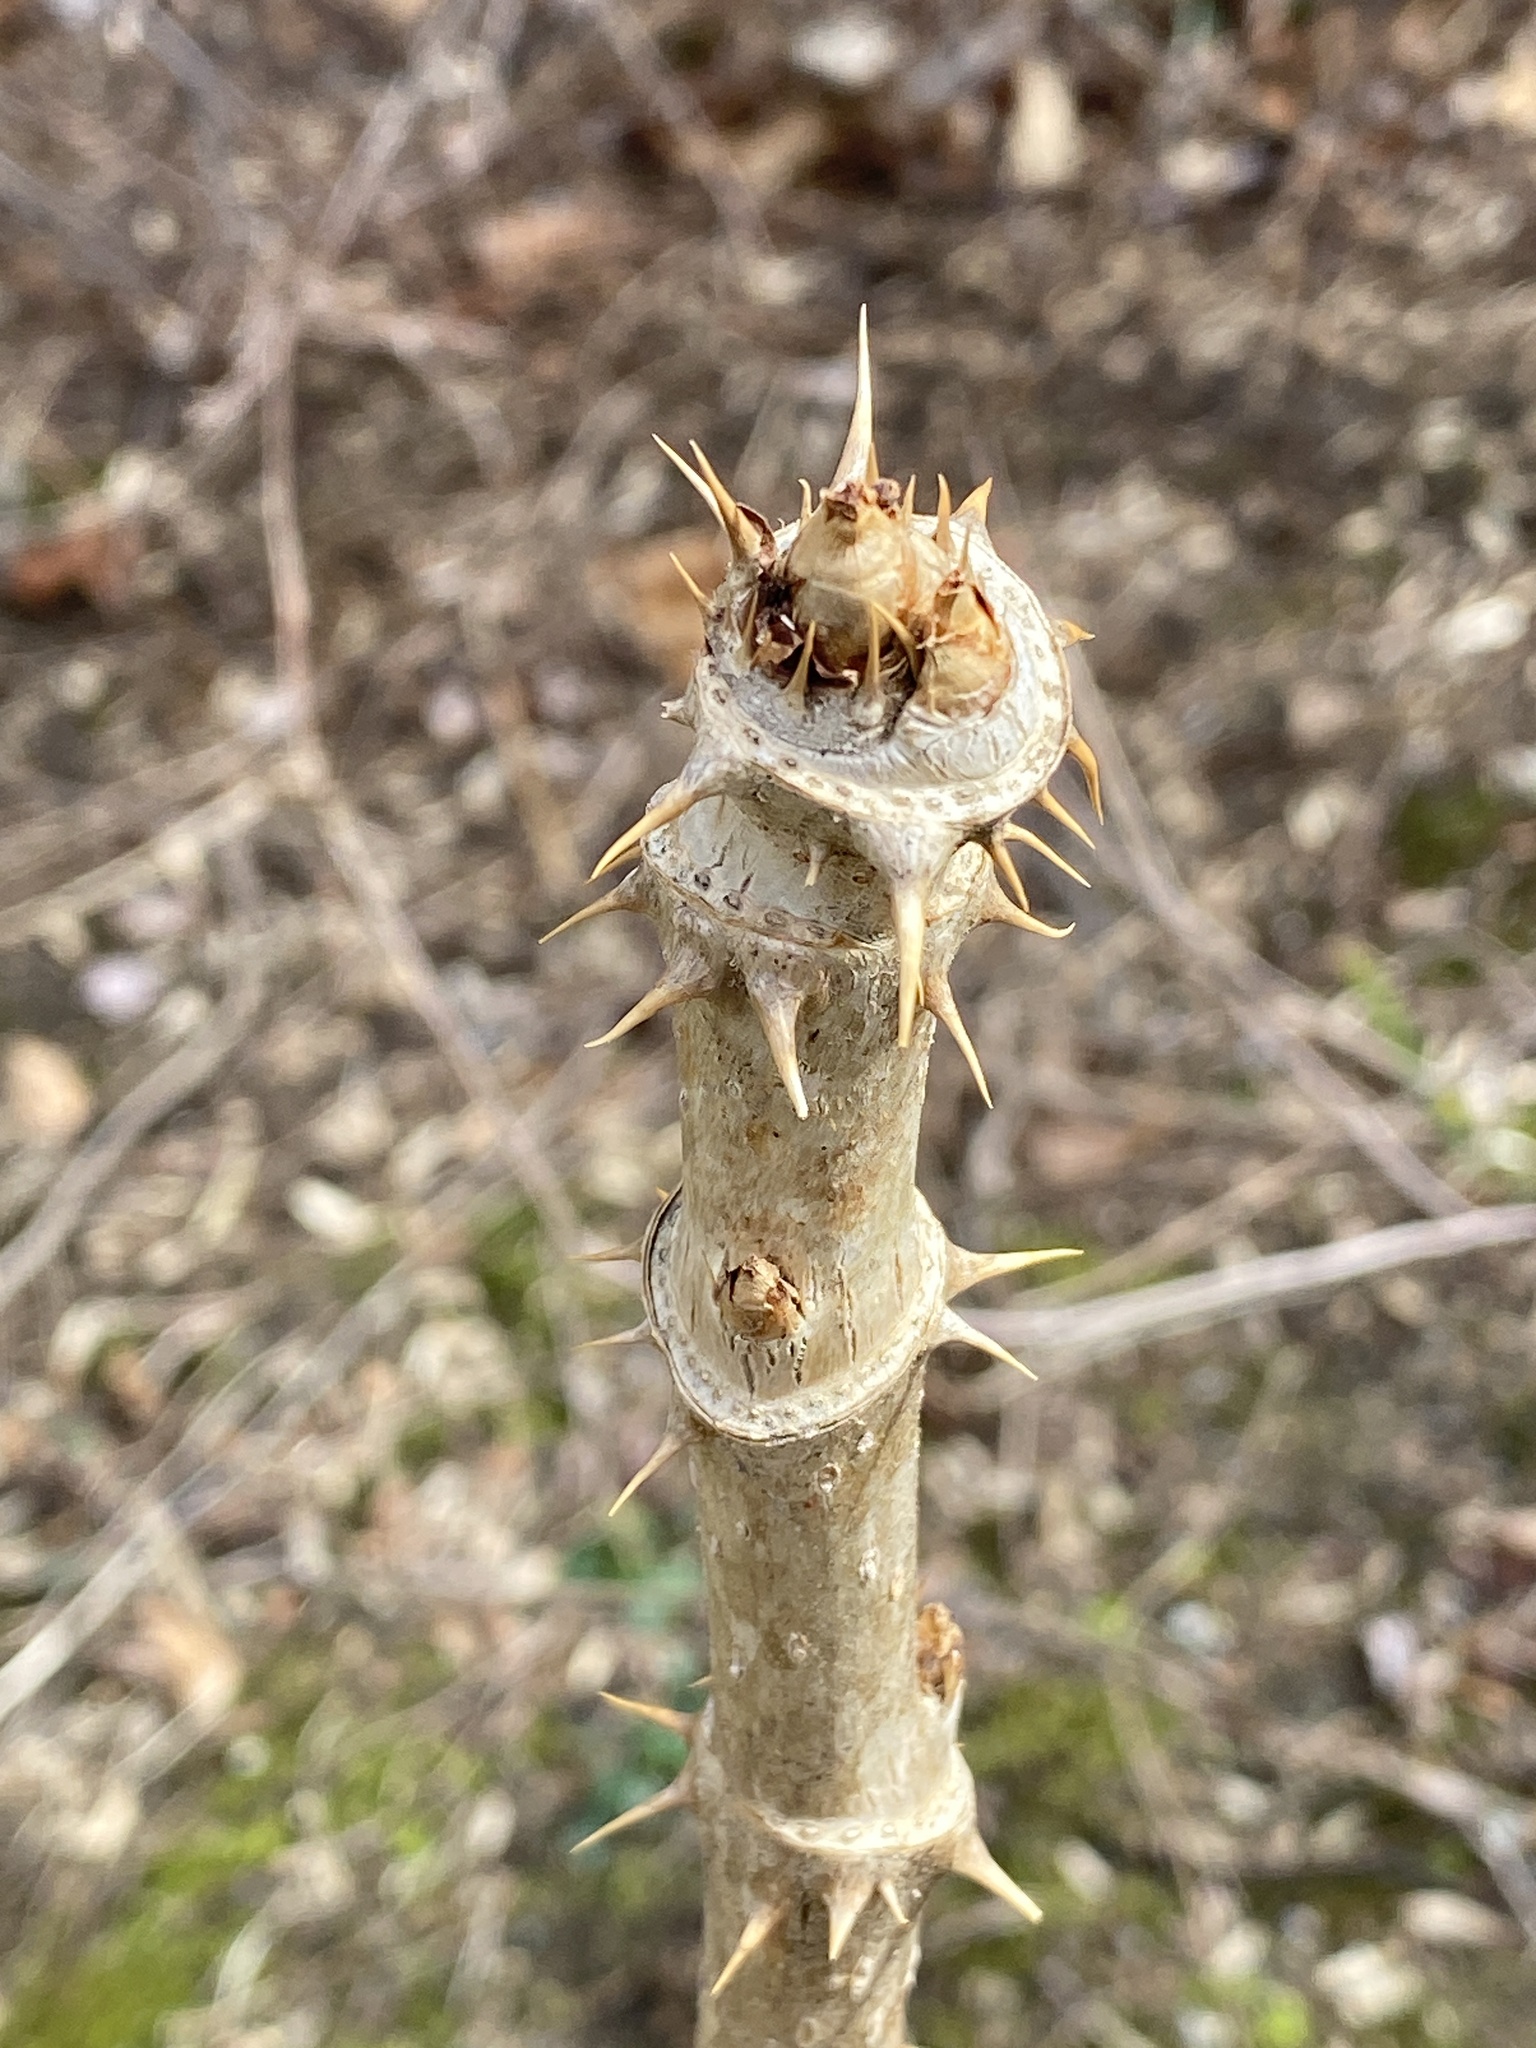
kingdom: Plantae
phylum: Tracheophyta
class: Magnoliopsida
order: Apiales
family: Araliaceae
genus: Aralia
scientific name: Aralia elata
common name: Japanese angelica-tree
